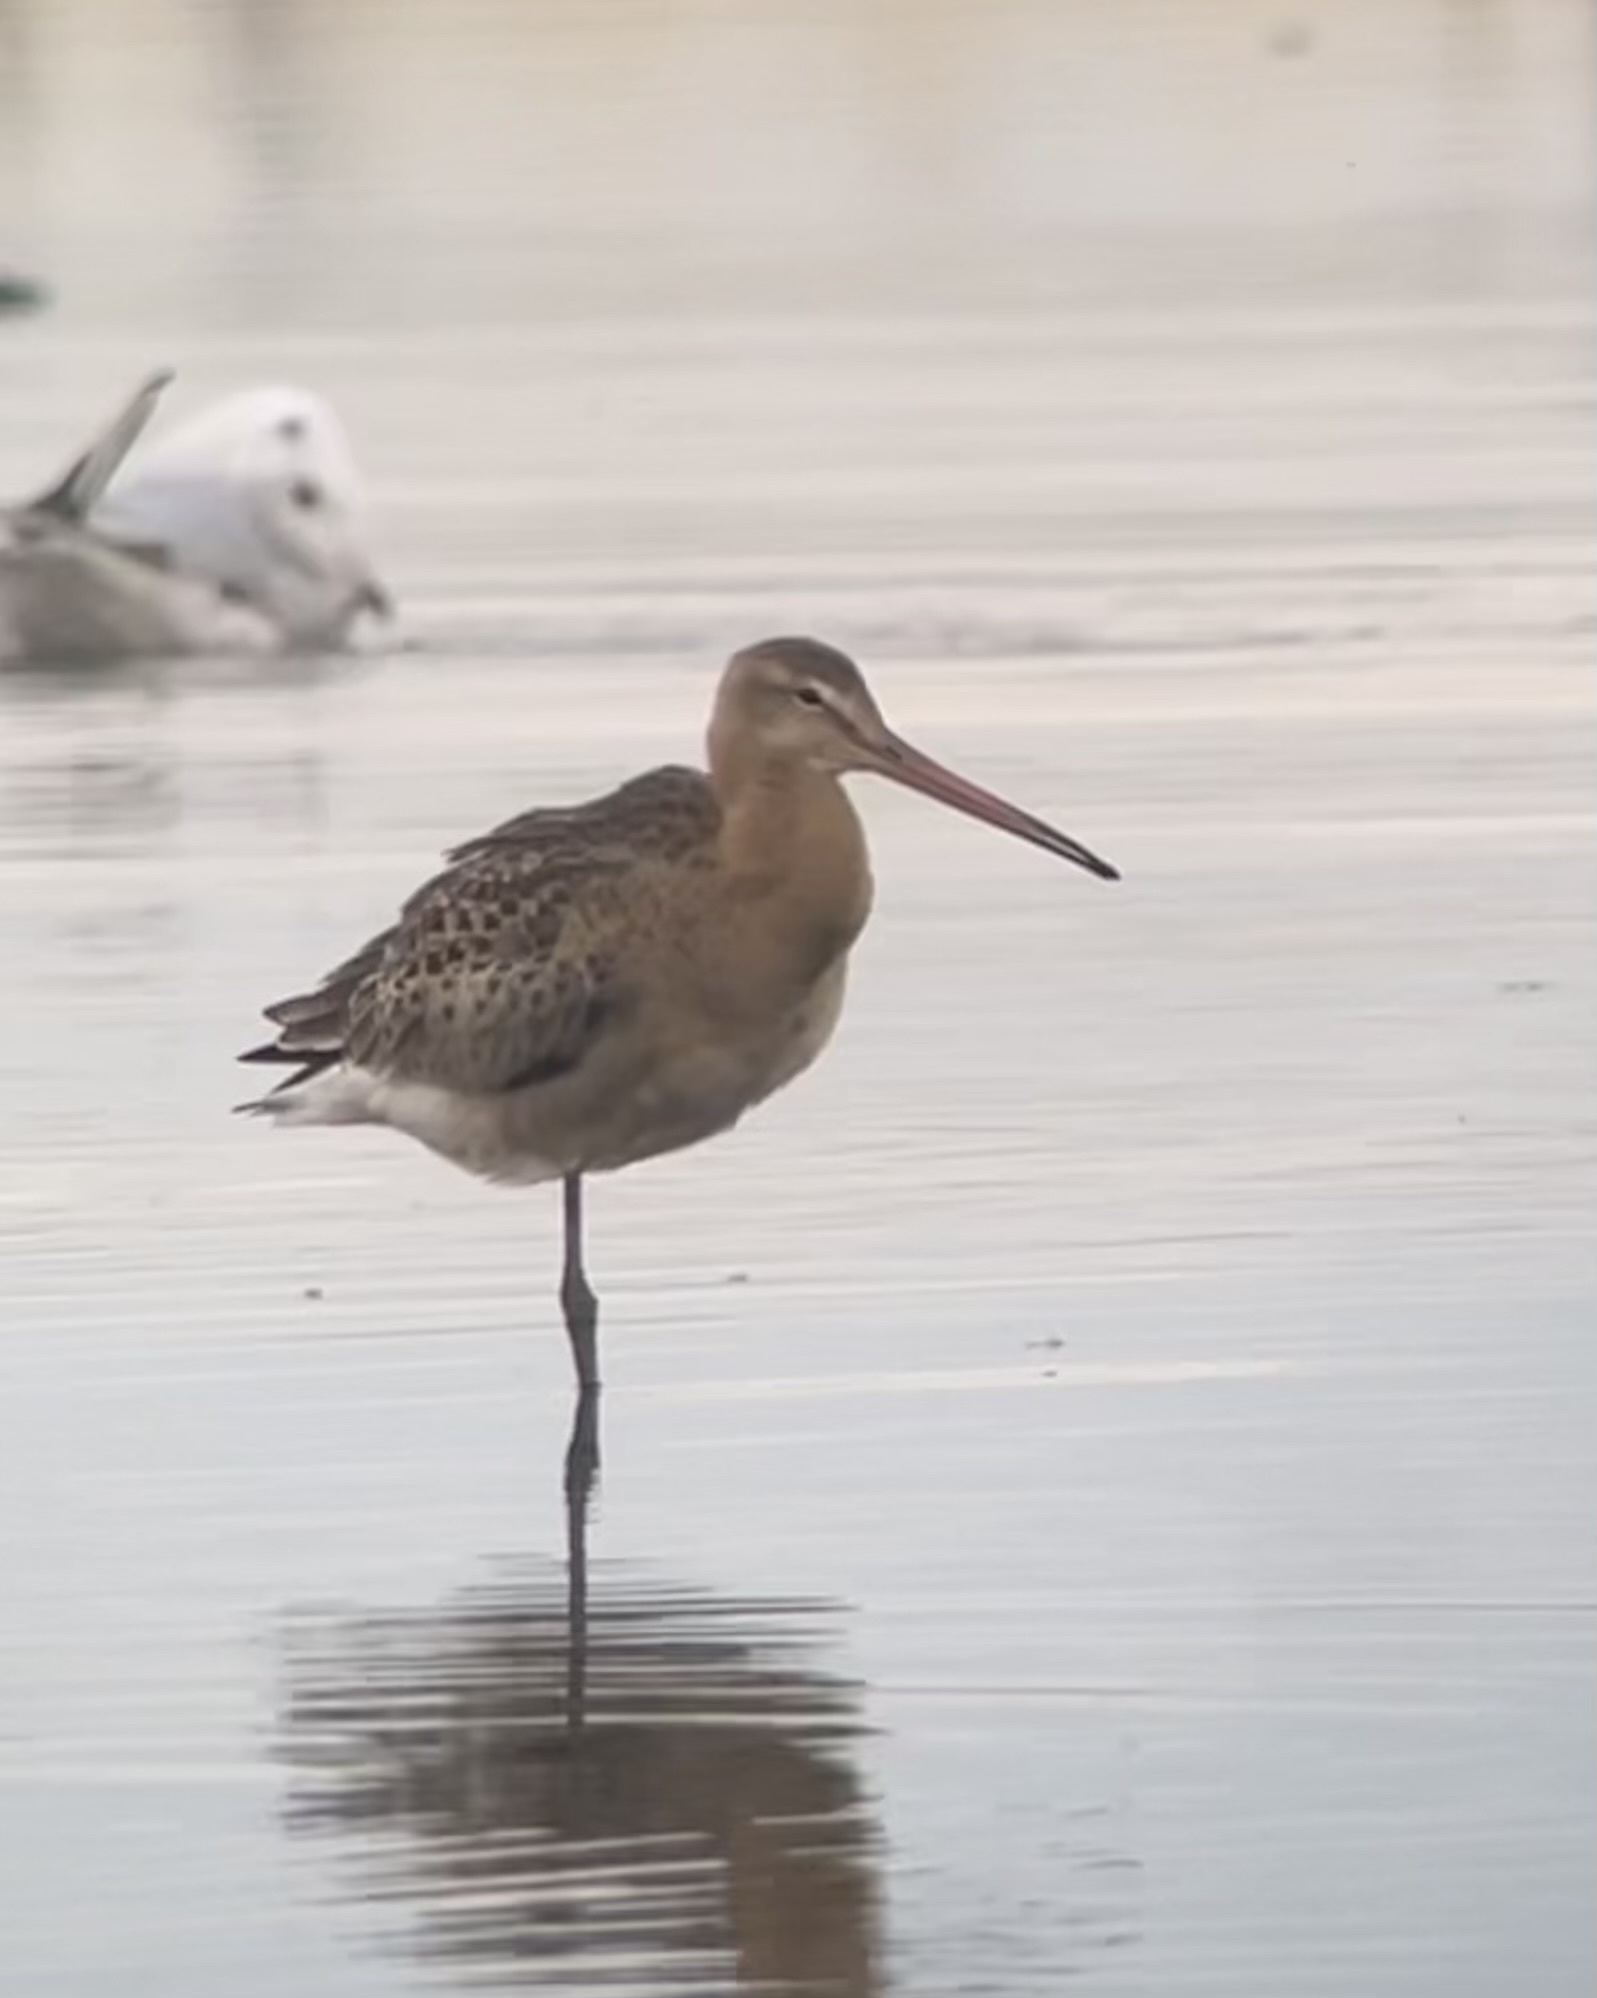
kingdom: Animalia
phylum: Chordata
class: Aves
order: Charadriiformes
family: Scolopacidae
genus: Limosa
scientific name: Limosa limosa
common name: Black-tailed godwit
